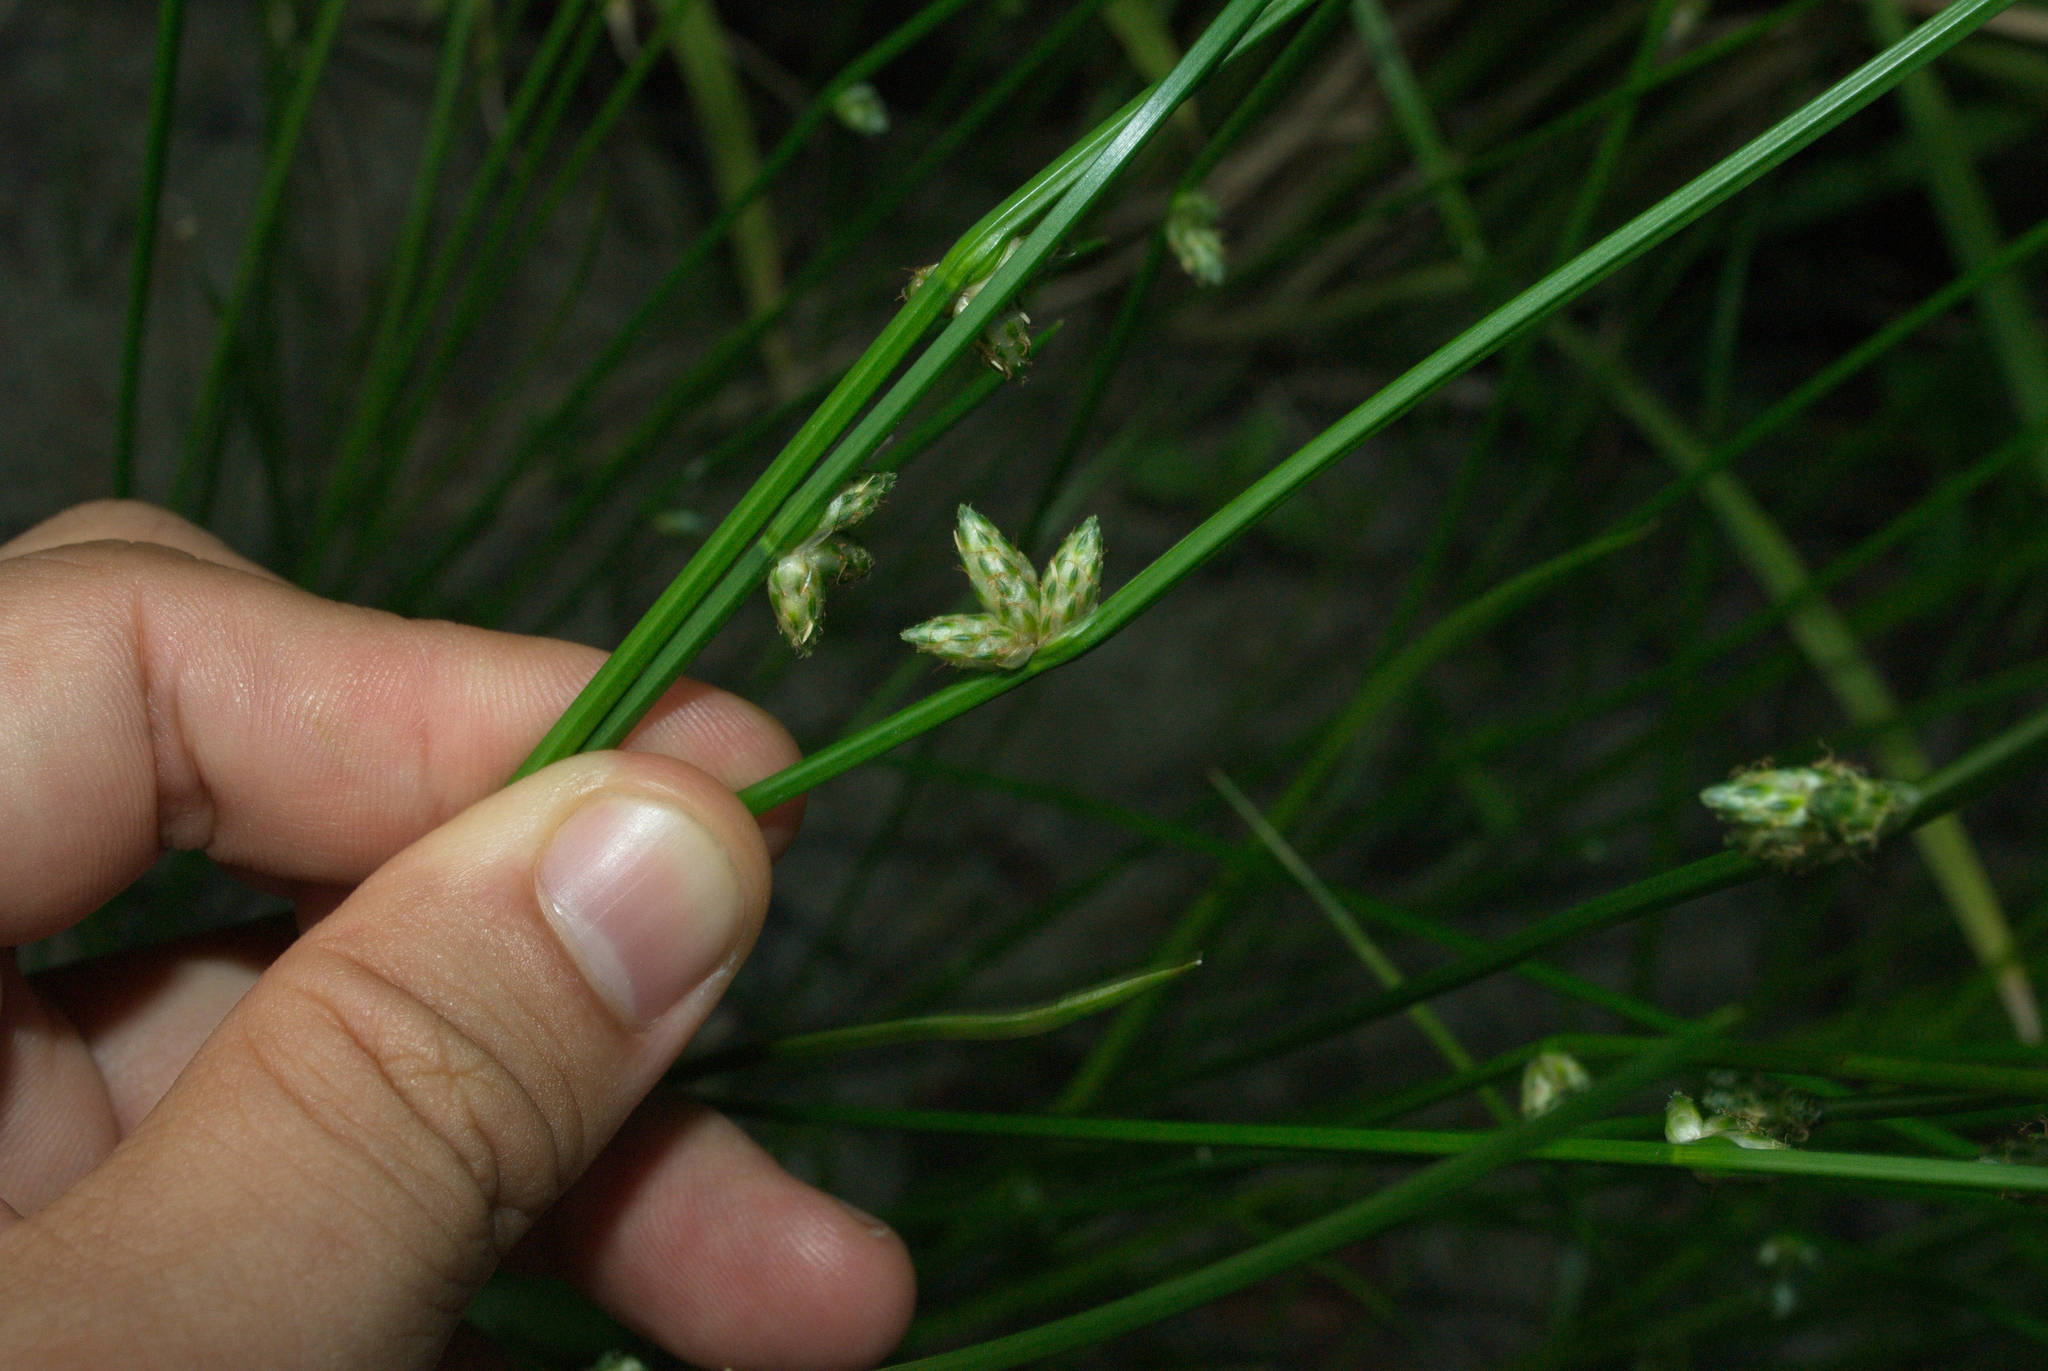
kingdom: Plantae
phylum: Tracheophyta
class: Liliopsida
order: Poales
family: Cyperaceae
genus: Schoenoplectiella
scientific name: Schoenoplectiella juncoides
